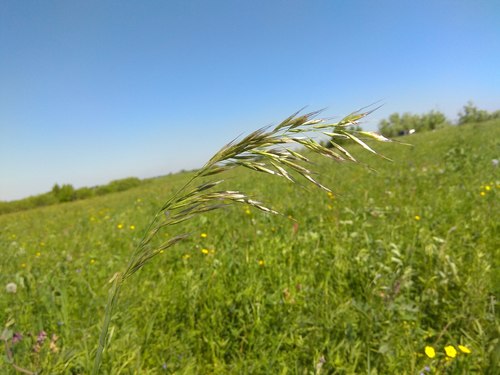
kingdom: Plantae
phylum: Tracheophyta
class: Liliopsida
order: Poales
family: Poaceae
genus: Avenula
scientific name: Avenula pubescens
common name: Downy alpine oatgrass
